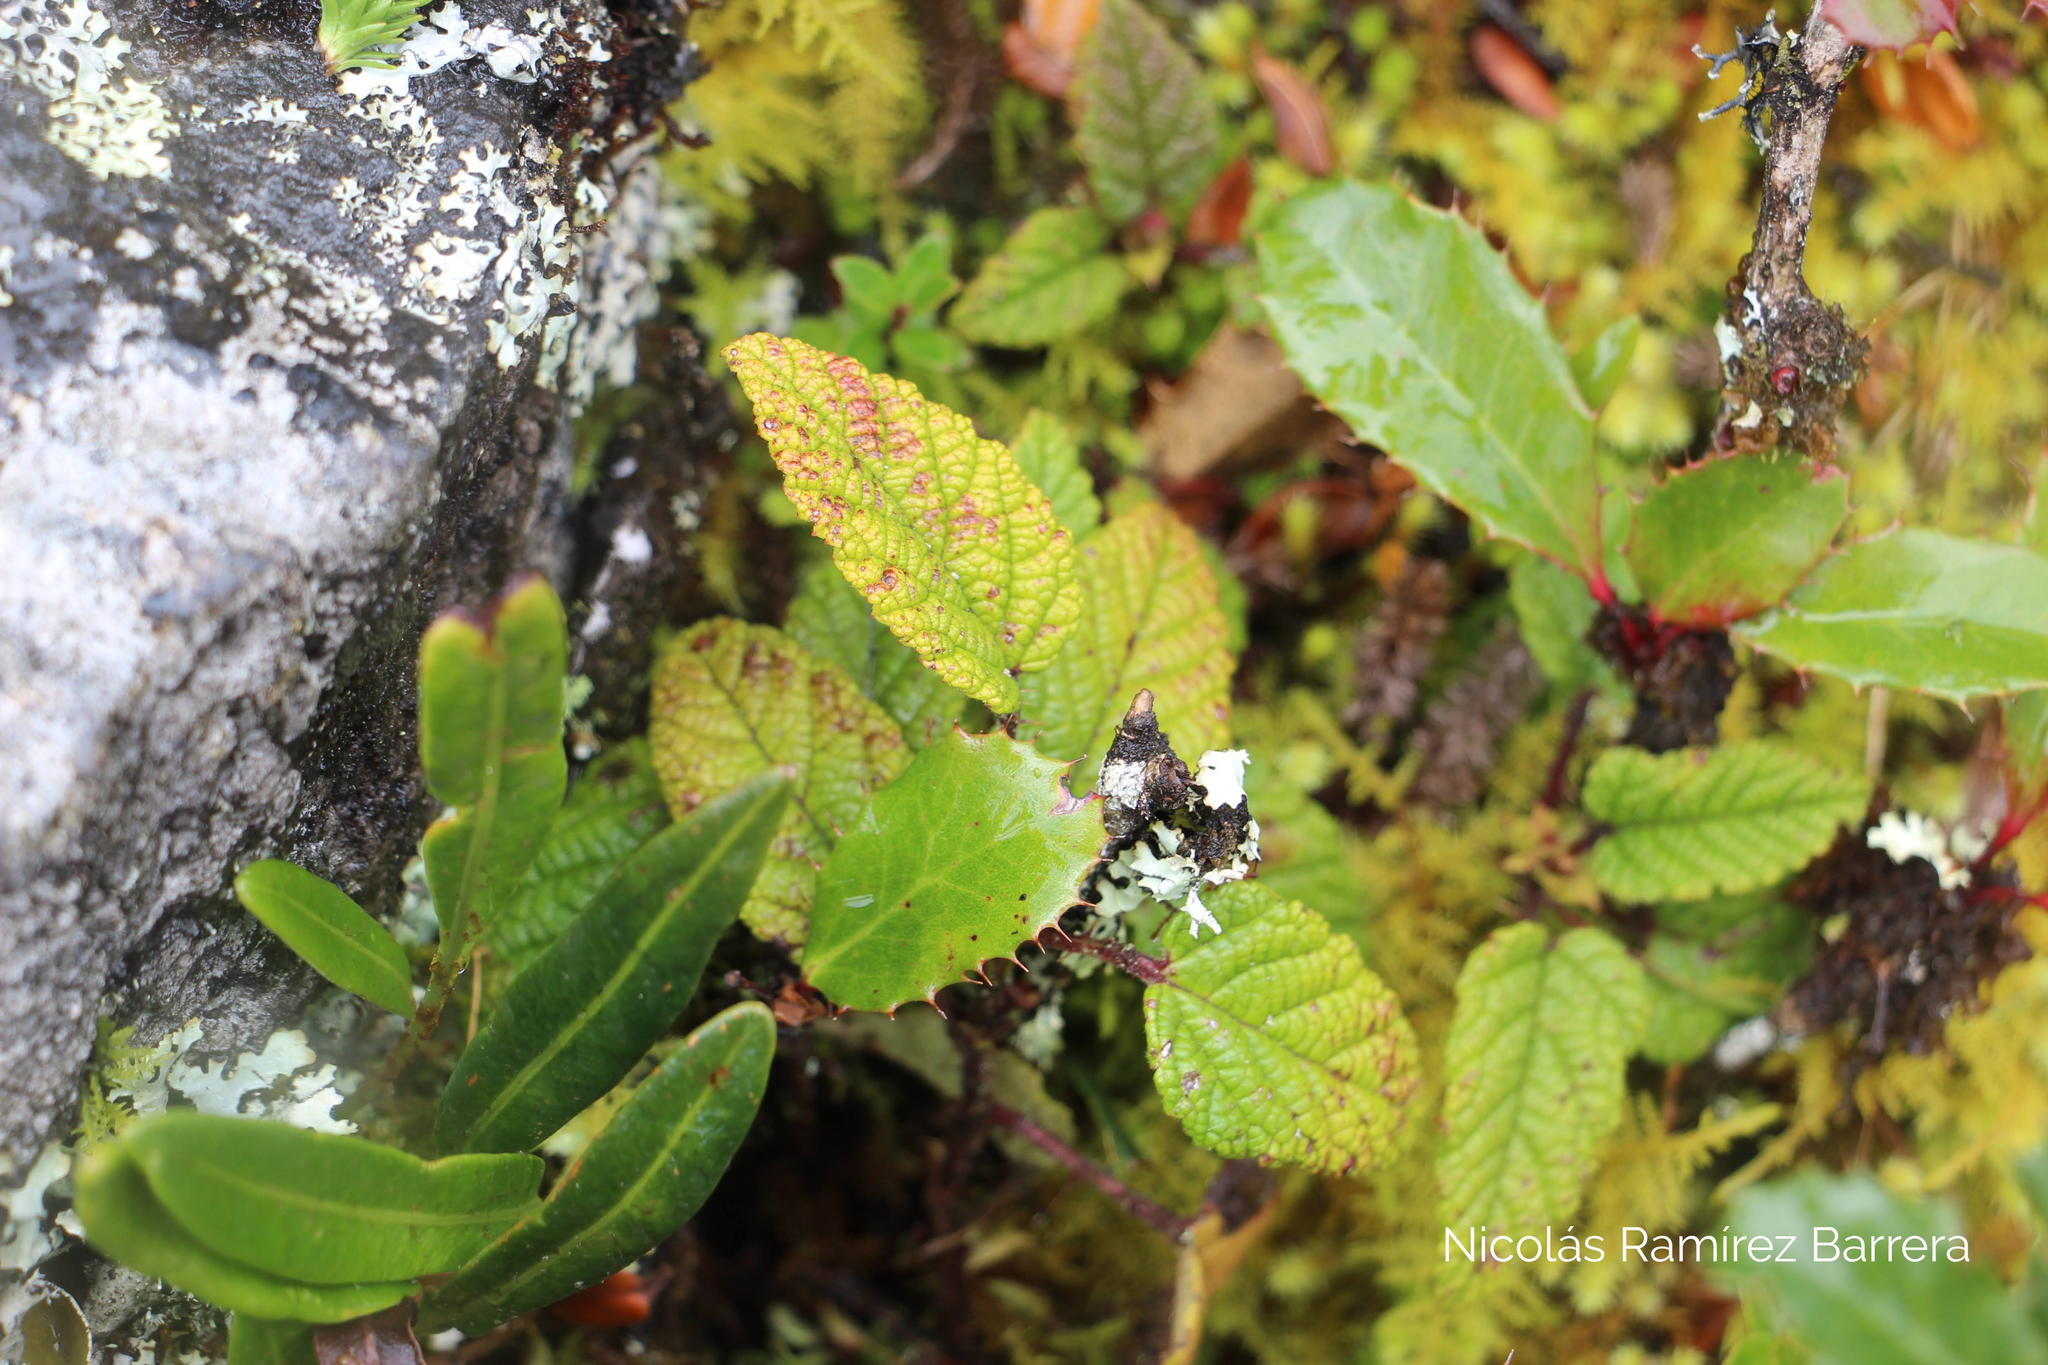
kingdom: Plantae
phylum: Tracheophyta
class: Magnoliopsida
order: Rosales
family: Rosaceae
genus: Rubus
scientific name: Rubus acanthophyllos
